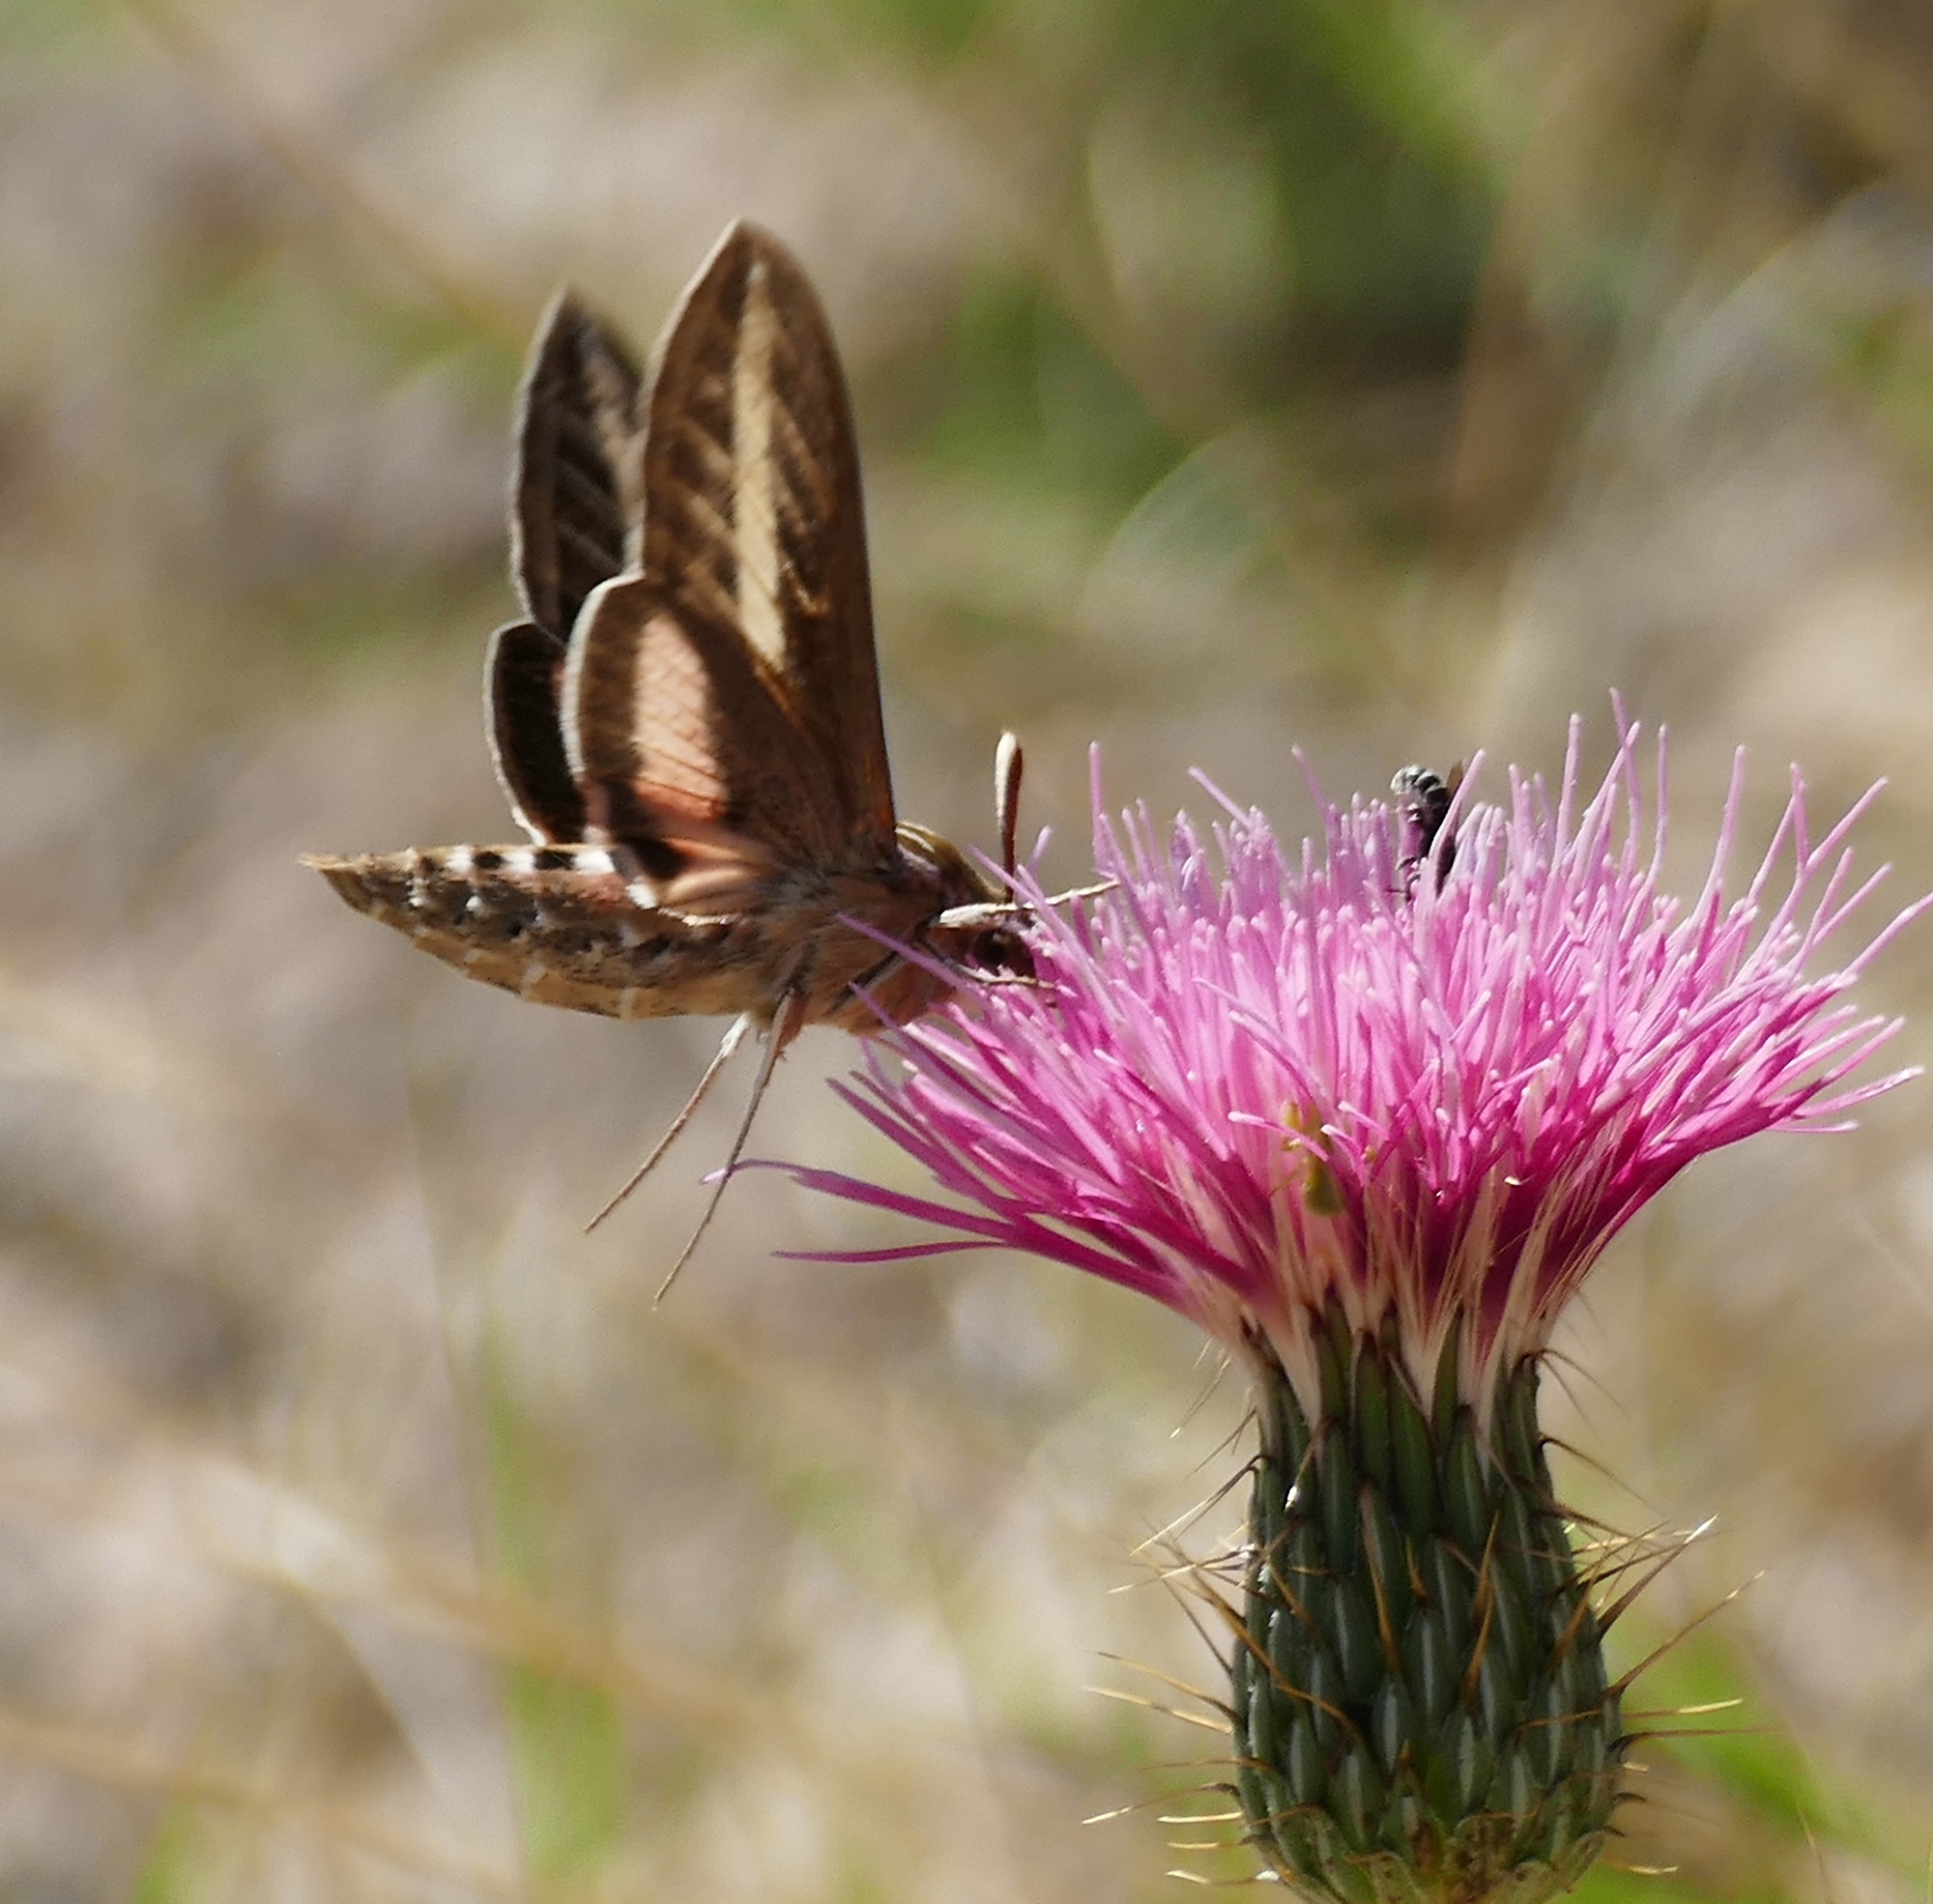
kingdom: Animalia
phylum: Arthropoda
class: Insecta
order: Lepidoptera
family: Sphingidae
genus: Hyles
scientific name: Hyles lineata
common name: White-lined sphinx
